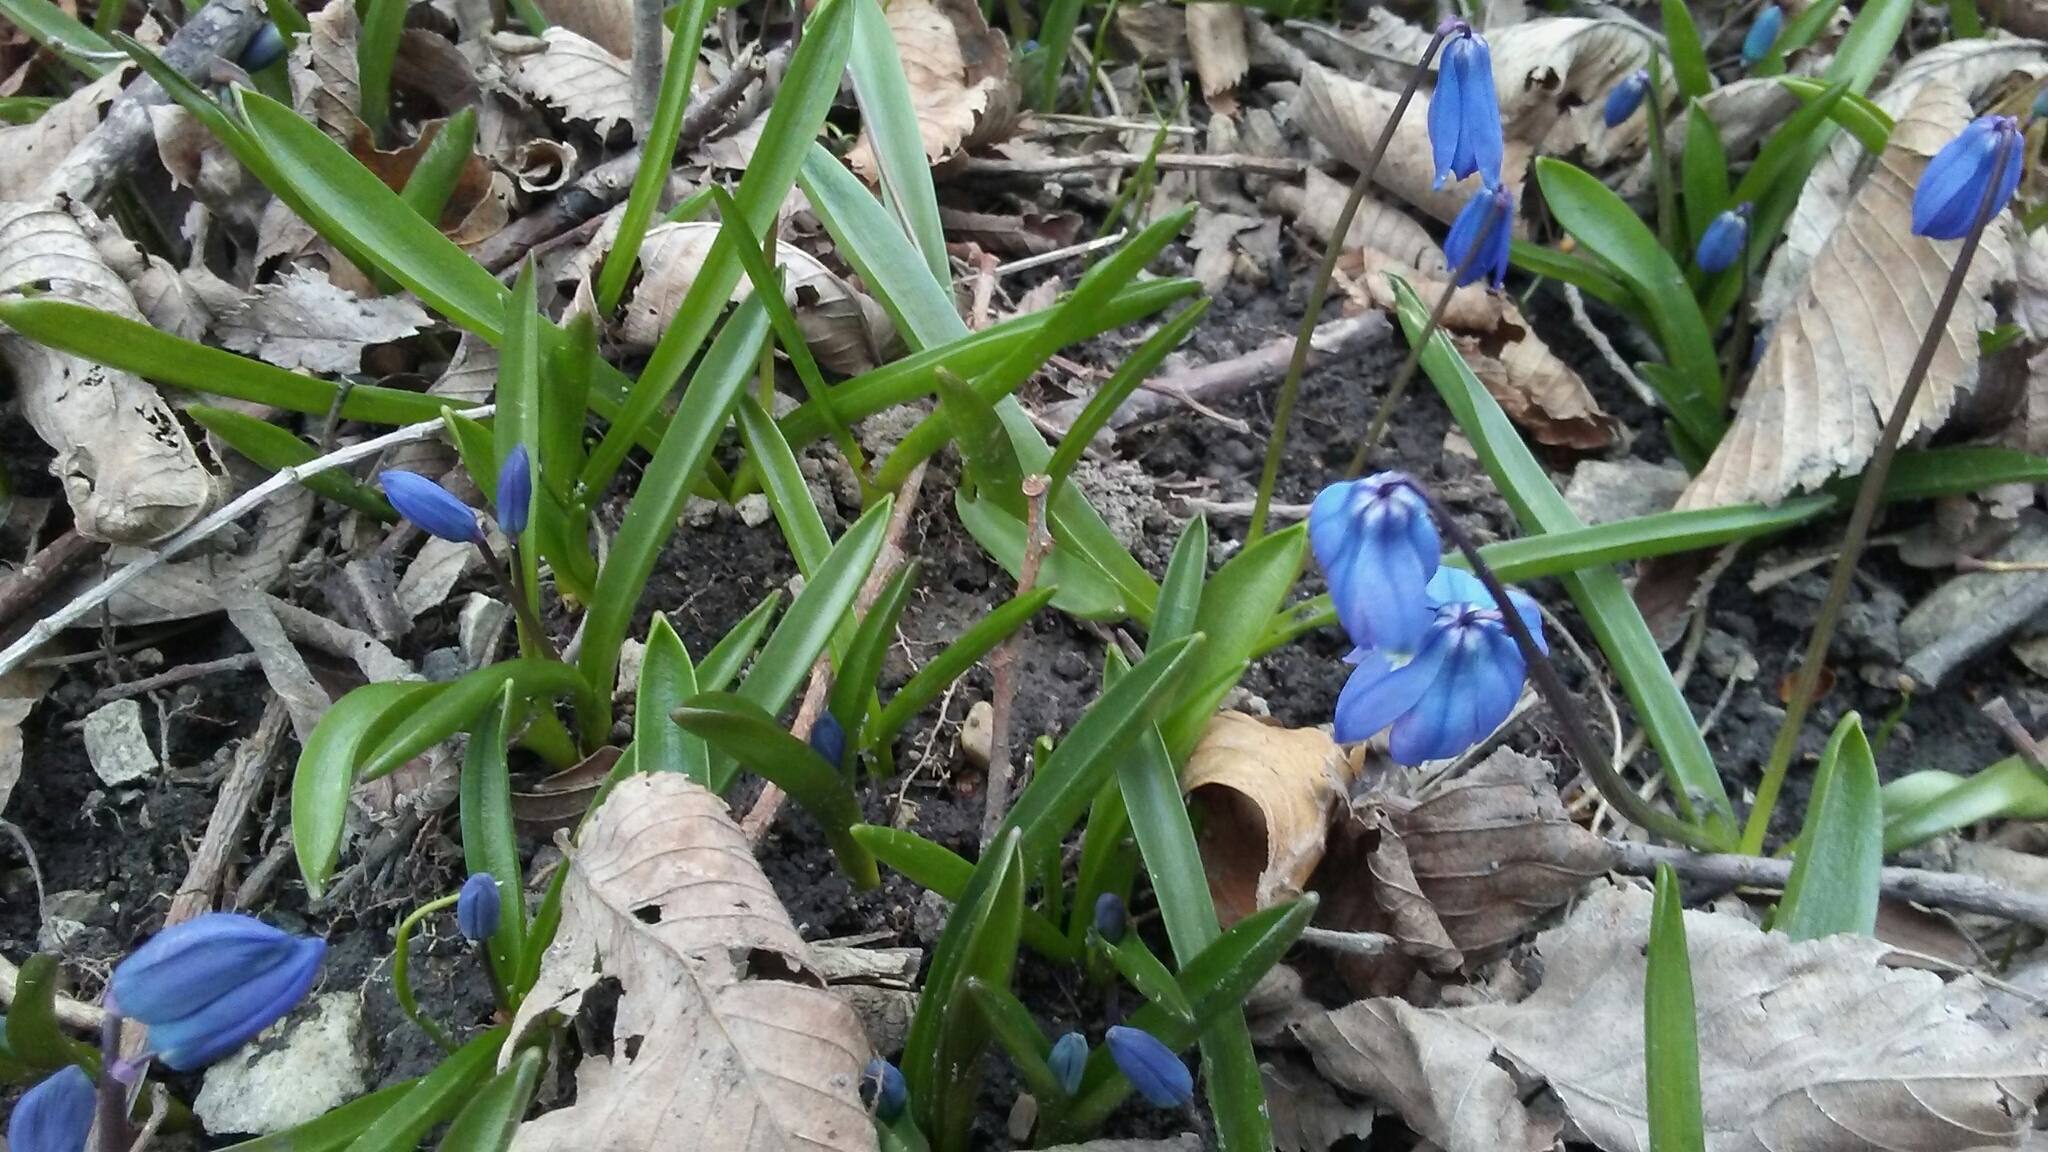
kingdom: Plantae
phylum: Tracheophyta
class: Liliopsida
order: Asparagales
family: Asparagaceae
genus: Scilla
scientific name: Scilla siberica
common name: Siberian squill
